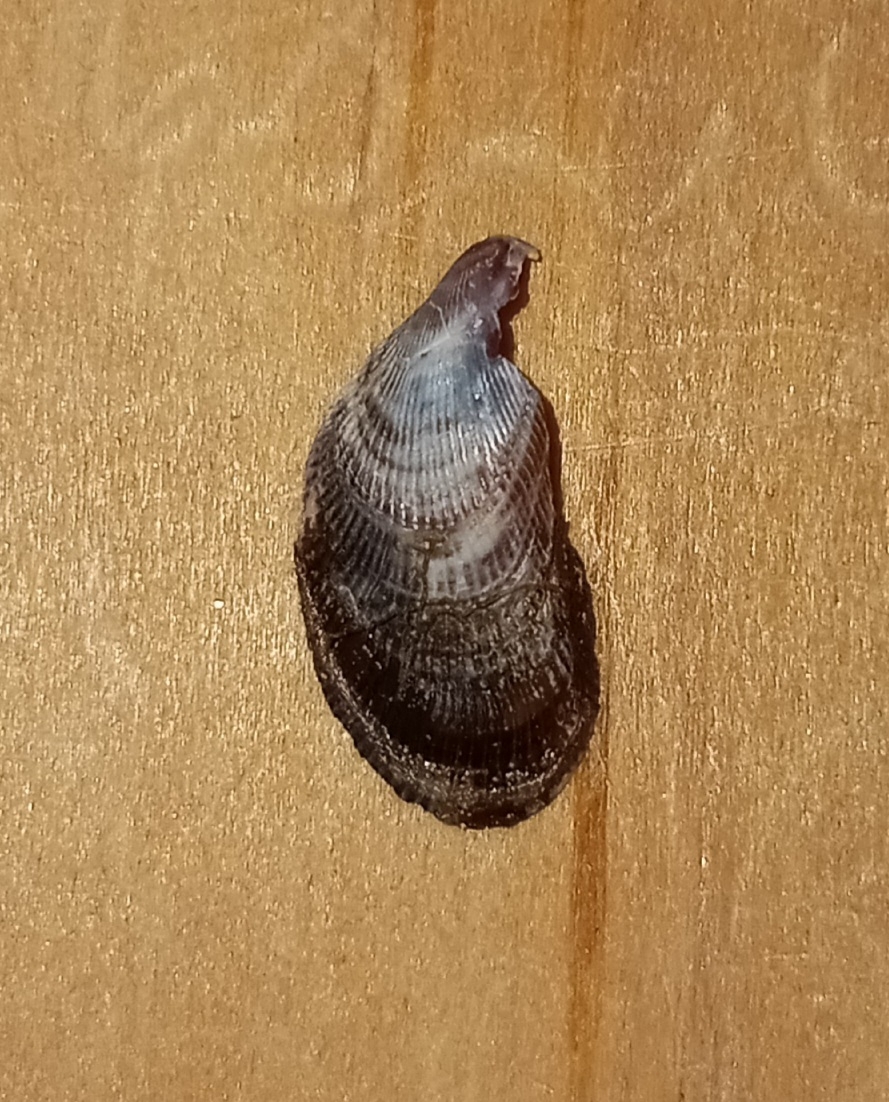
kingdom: Animalia
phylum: Mollusca
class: Bivalvia
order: Mytilida
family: Mytilidae
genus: Ischadium
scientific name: Ischadium recurvum
